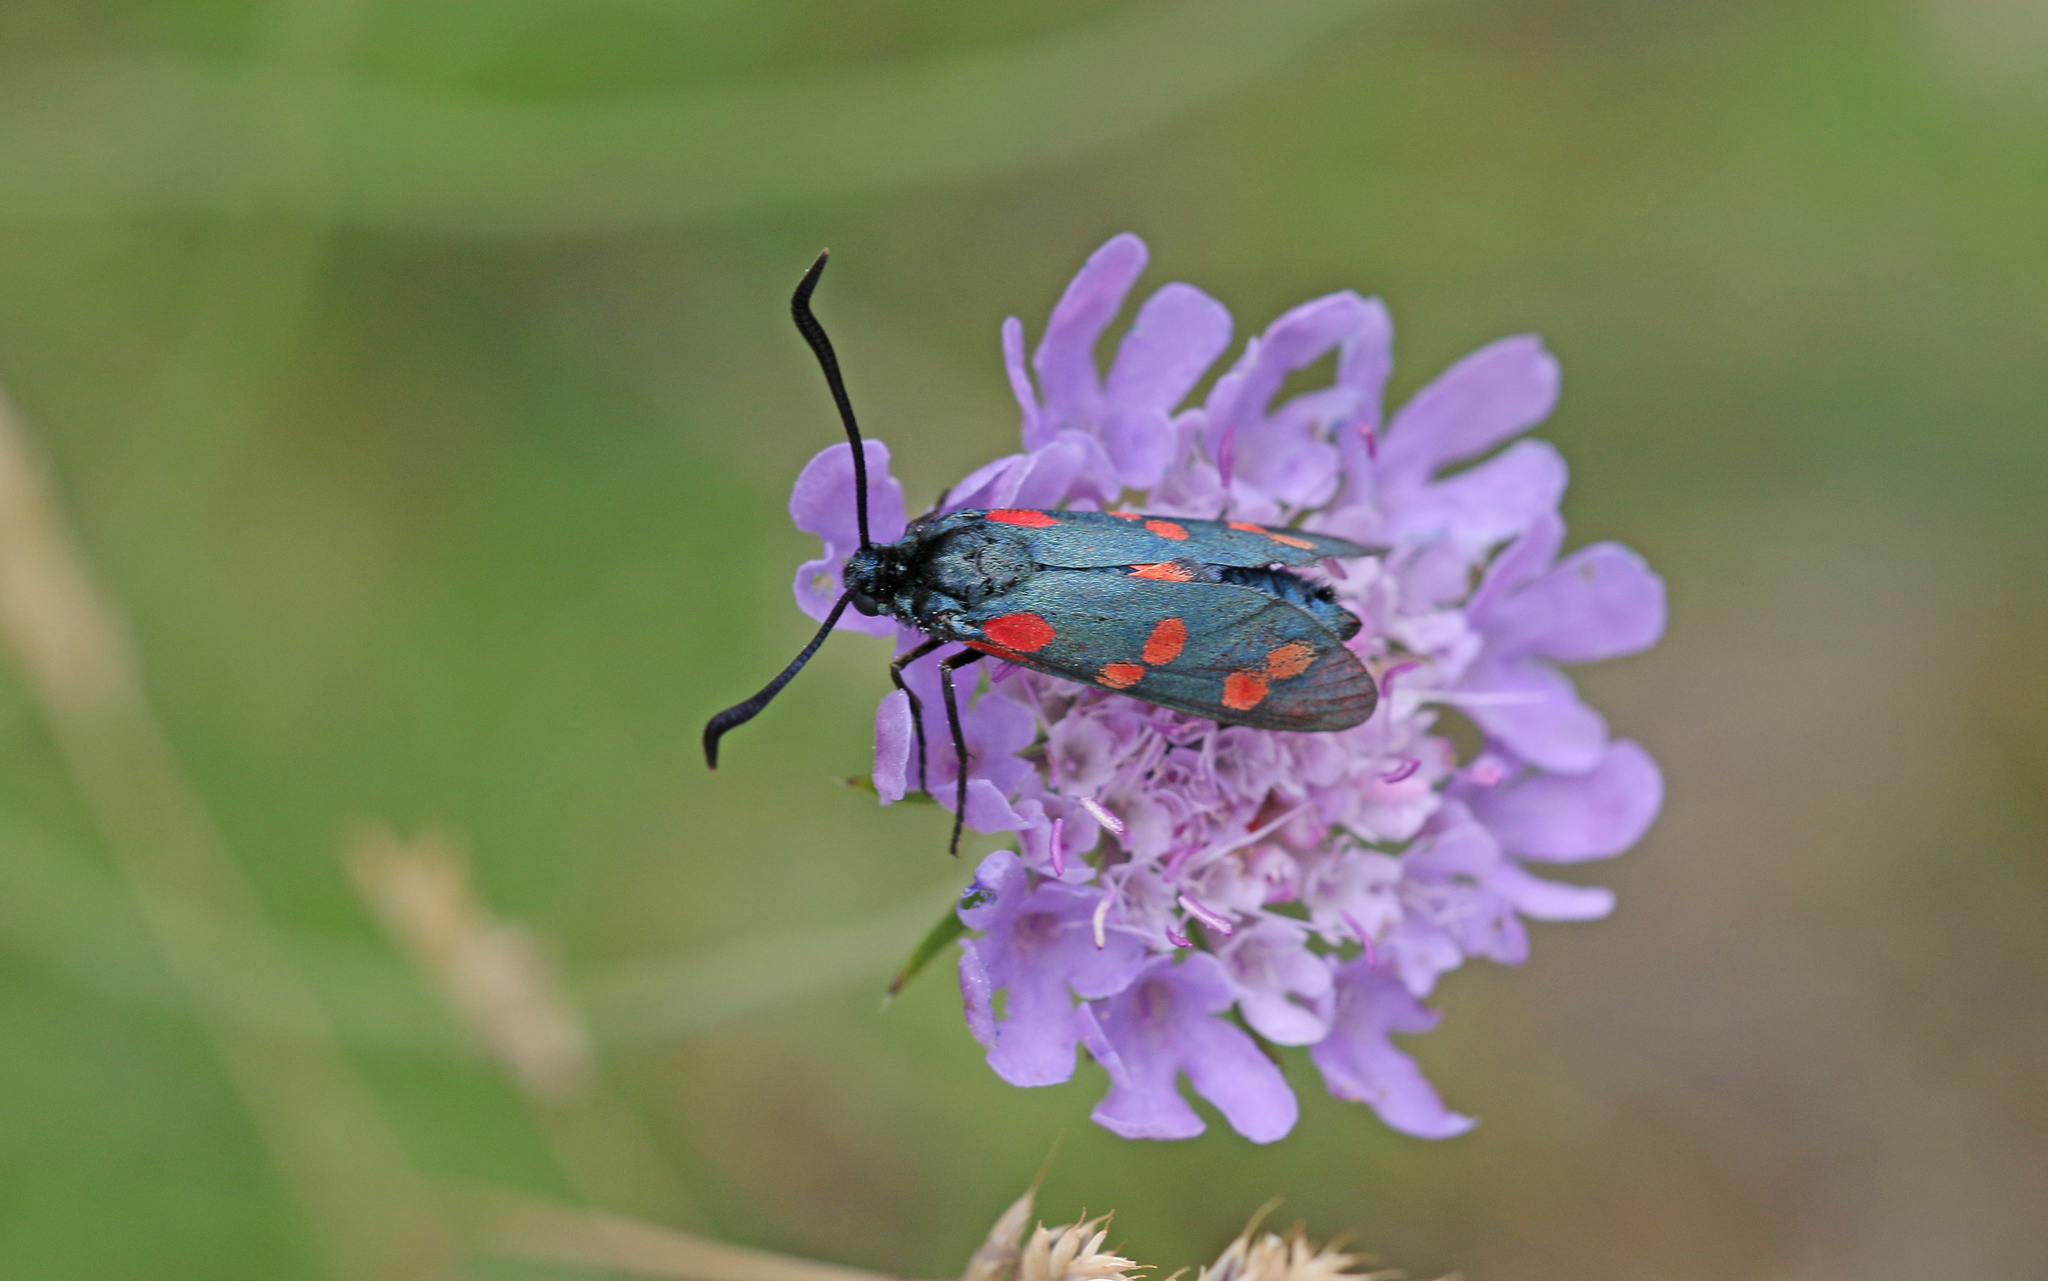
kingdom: Animalia
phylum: Arthropoda
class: Insecta
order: Lepidoptera
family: Zygaenidae
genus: Zygaena
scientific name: Zygaena filipendulae
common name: Six-spot burnet
